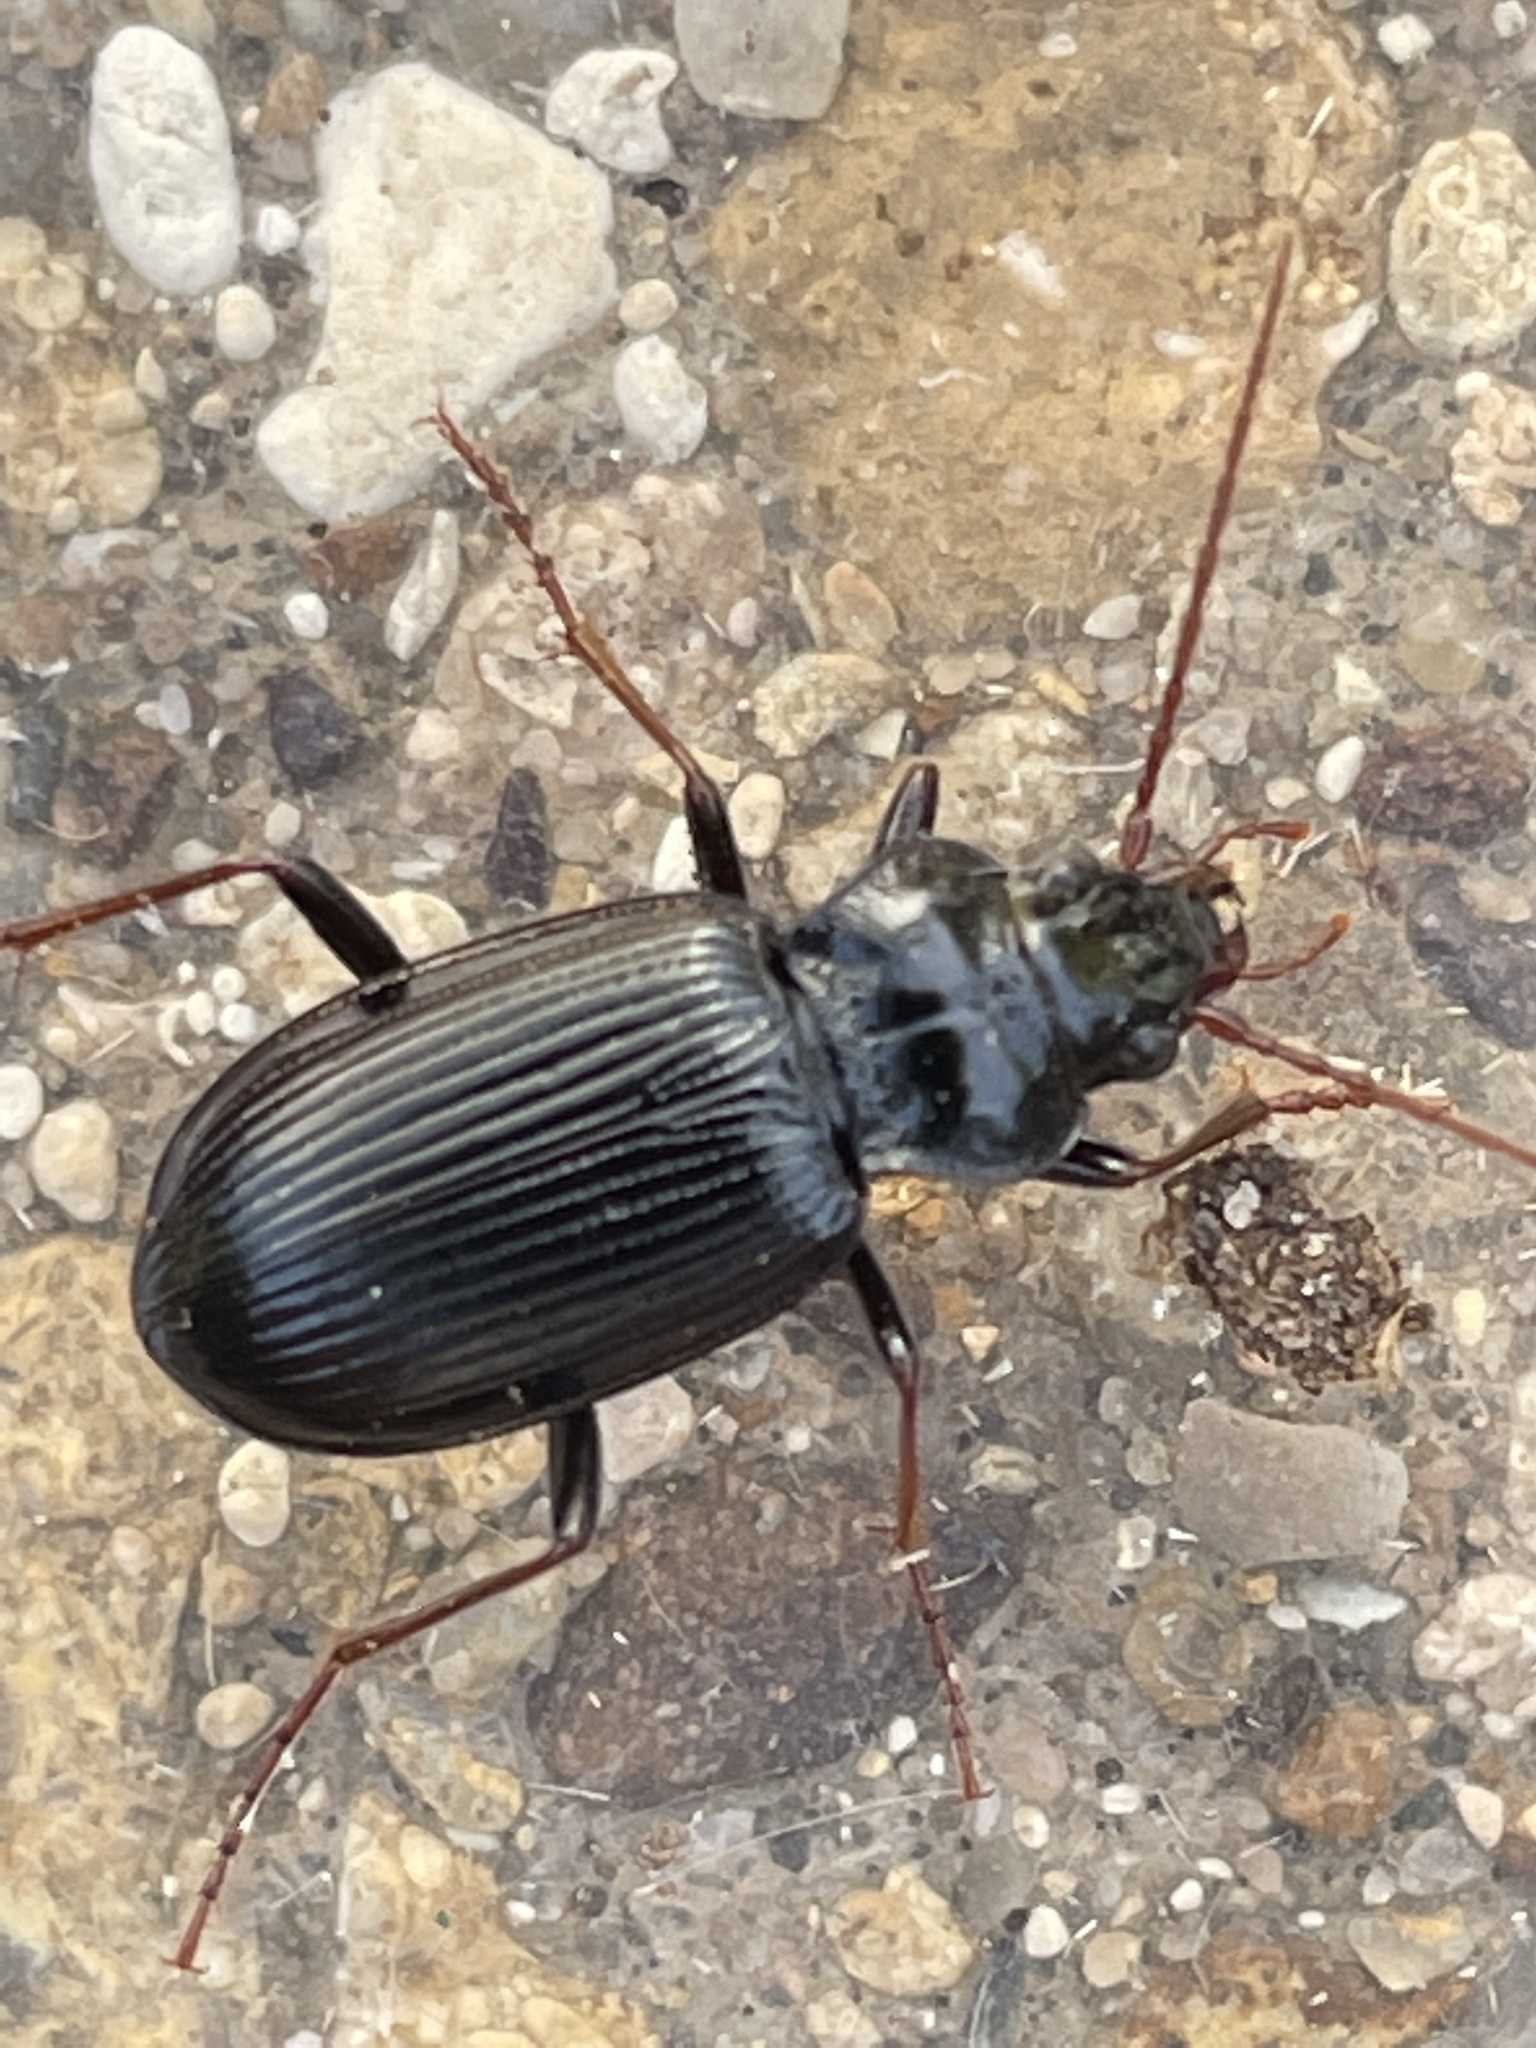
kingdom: Animalia
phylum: Arthropoda
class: Insecta
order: Coleoptera
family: Carabidae
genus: Nebria
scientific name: Nebria brevicollis
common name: Short-necked gazelle beetle
